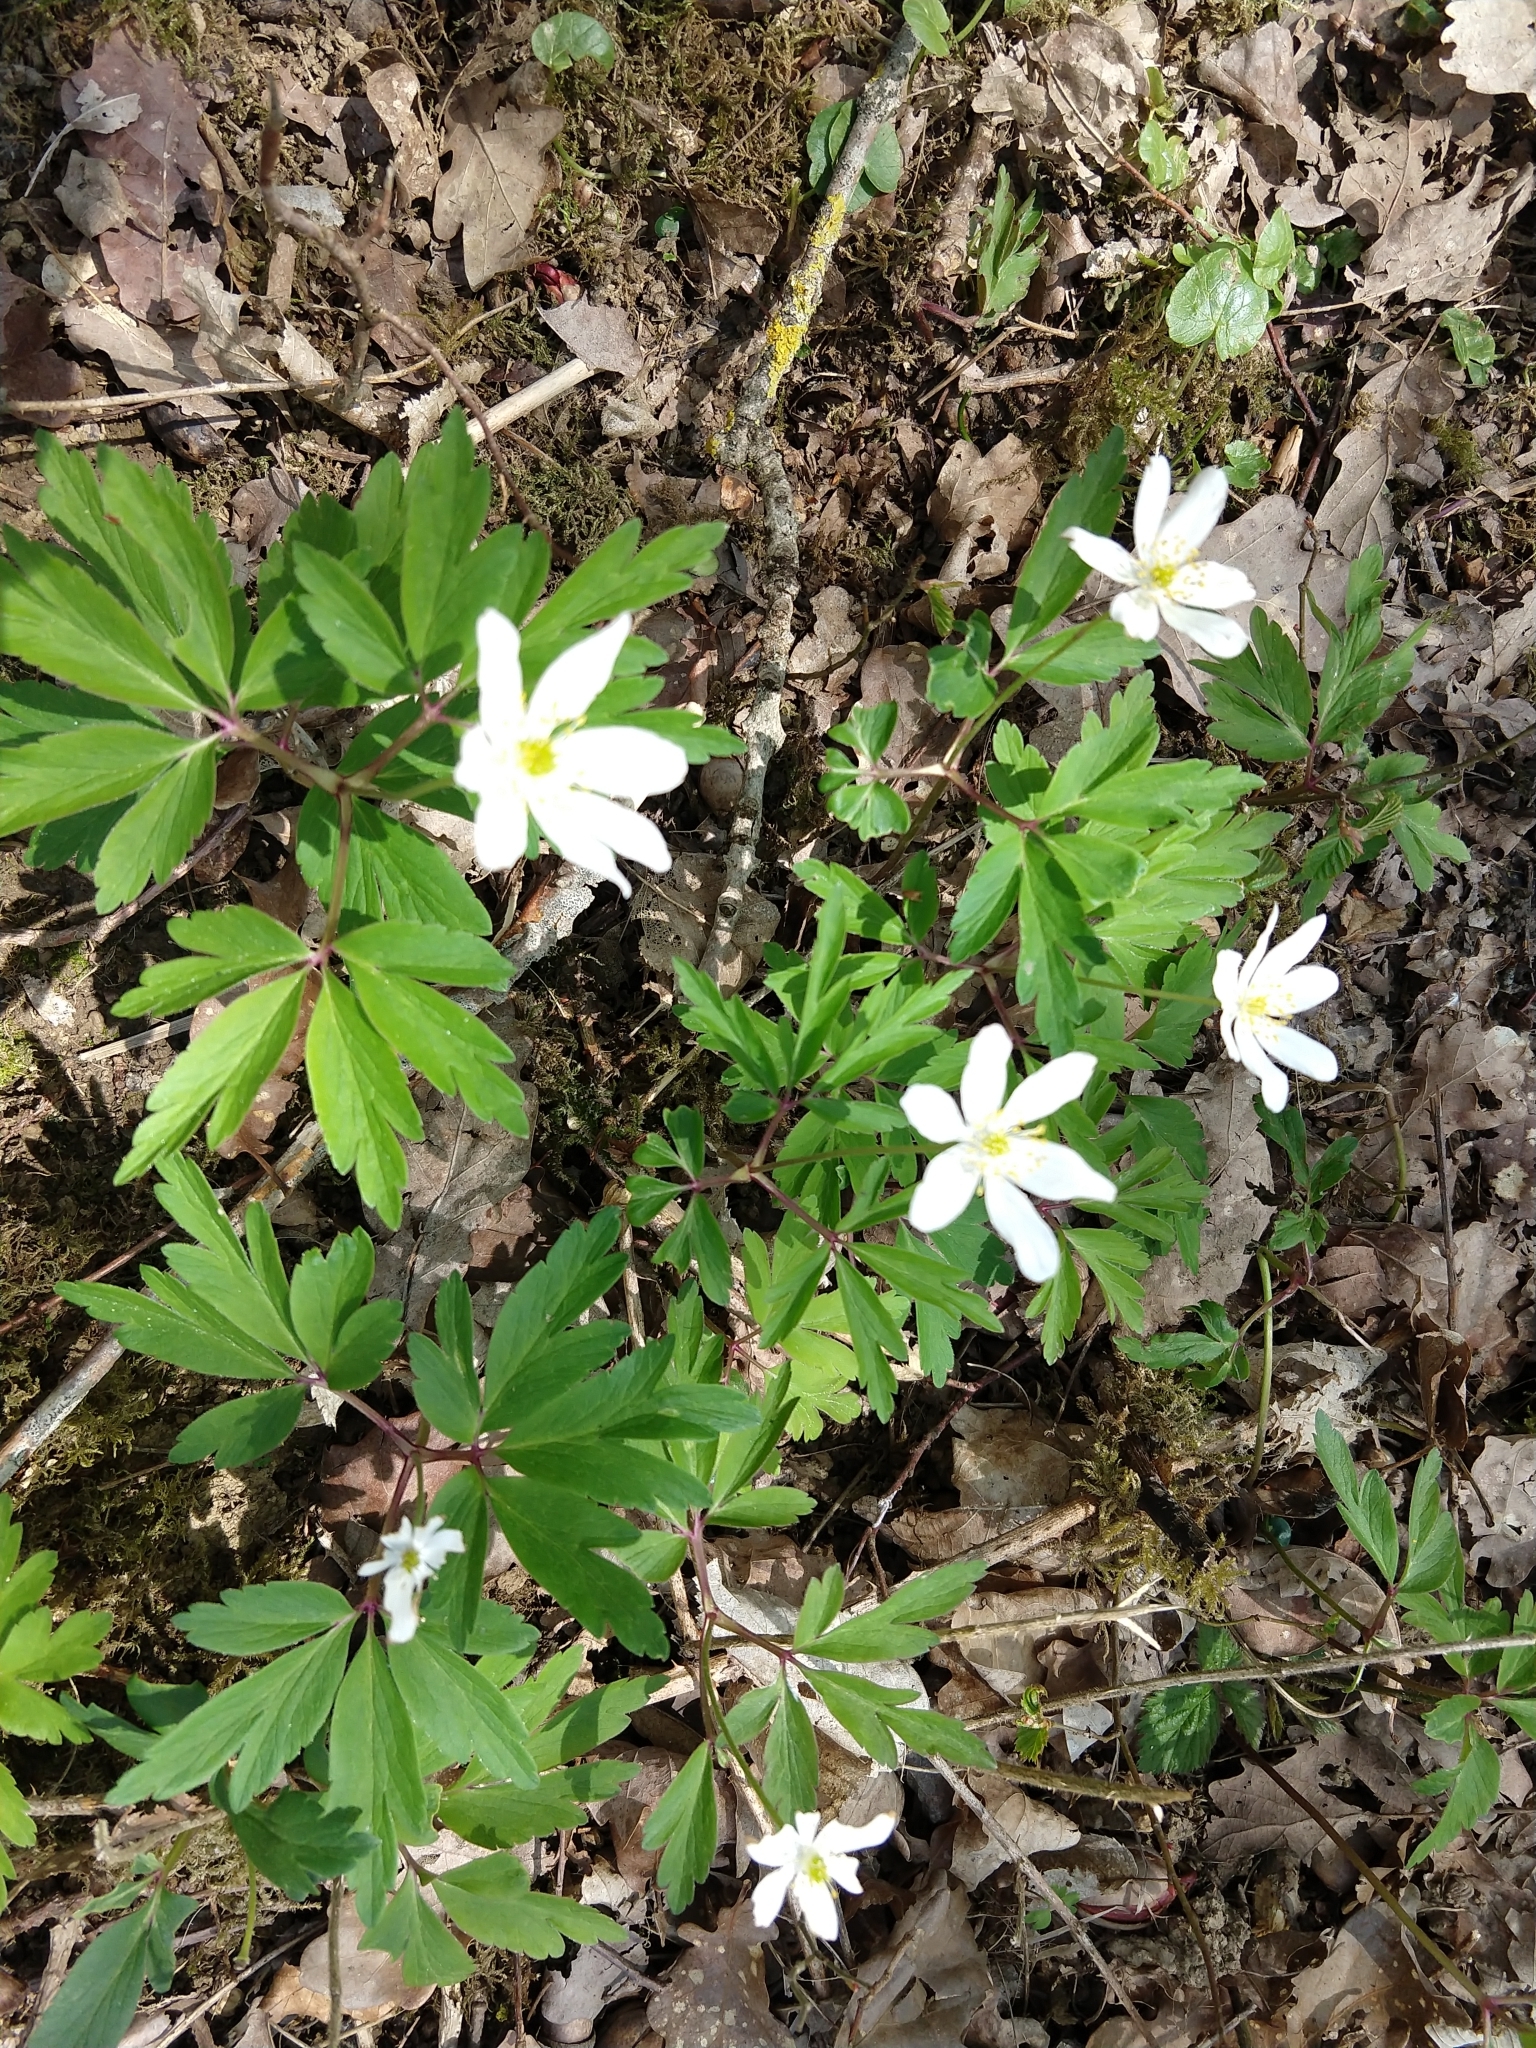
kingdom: Plantae
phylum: Tracheophyta
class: Magnoliopsida
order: Ranunculales
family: Ranunculaceae
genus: Anemone
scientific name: Anemone nemorosa
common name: Wood anemone
